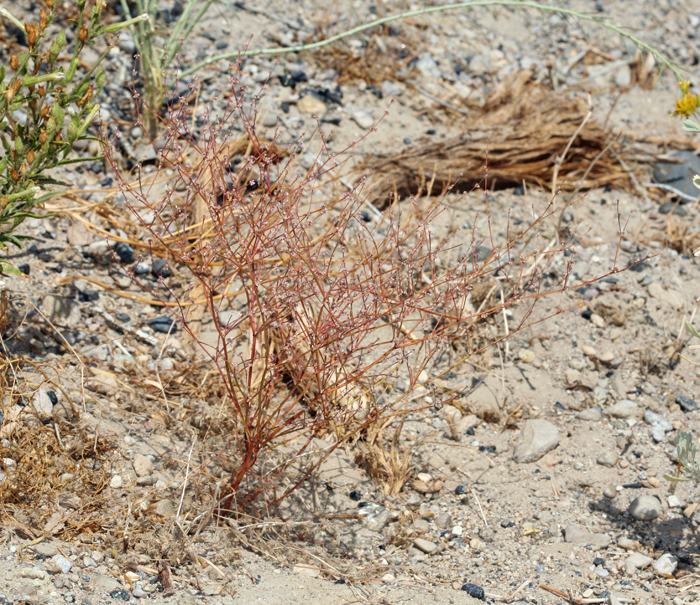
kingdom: Plantae
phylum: Tracheophyta
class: Magnoliopsida
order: Caryophyllales
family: Polygonaceae
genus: Eriogonum
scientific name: Eriogonum baileyi
